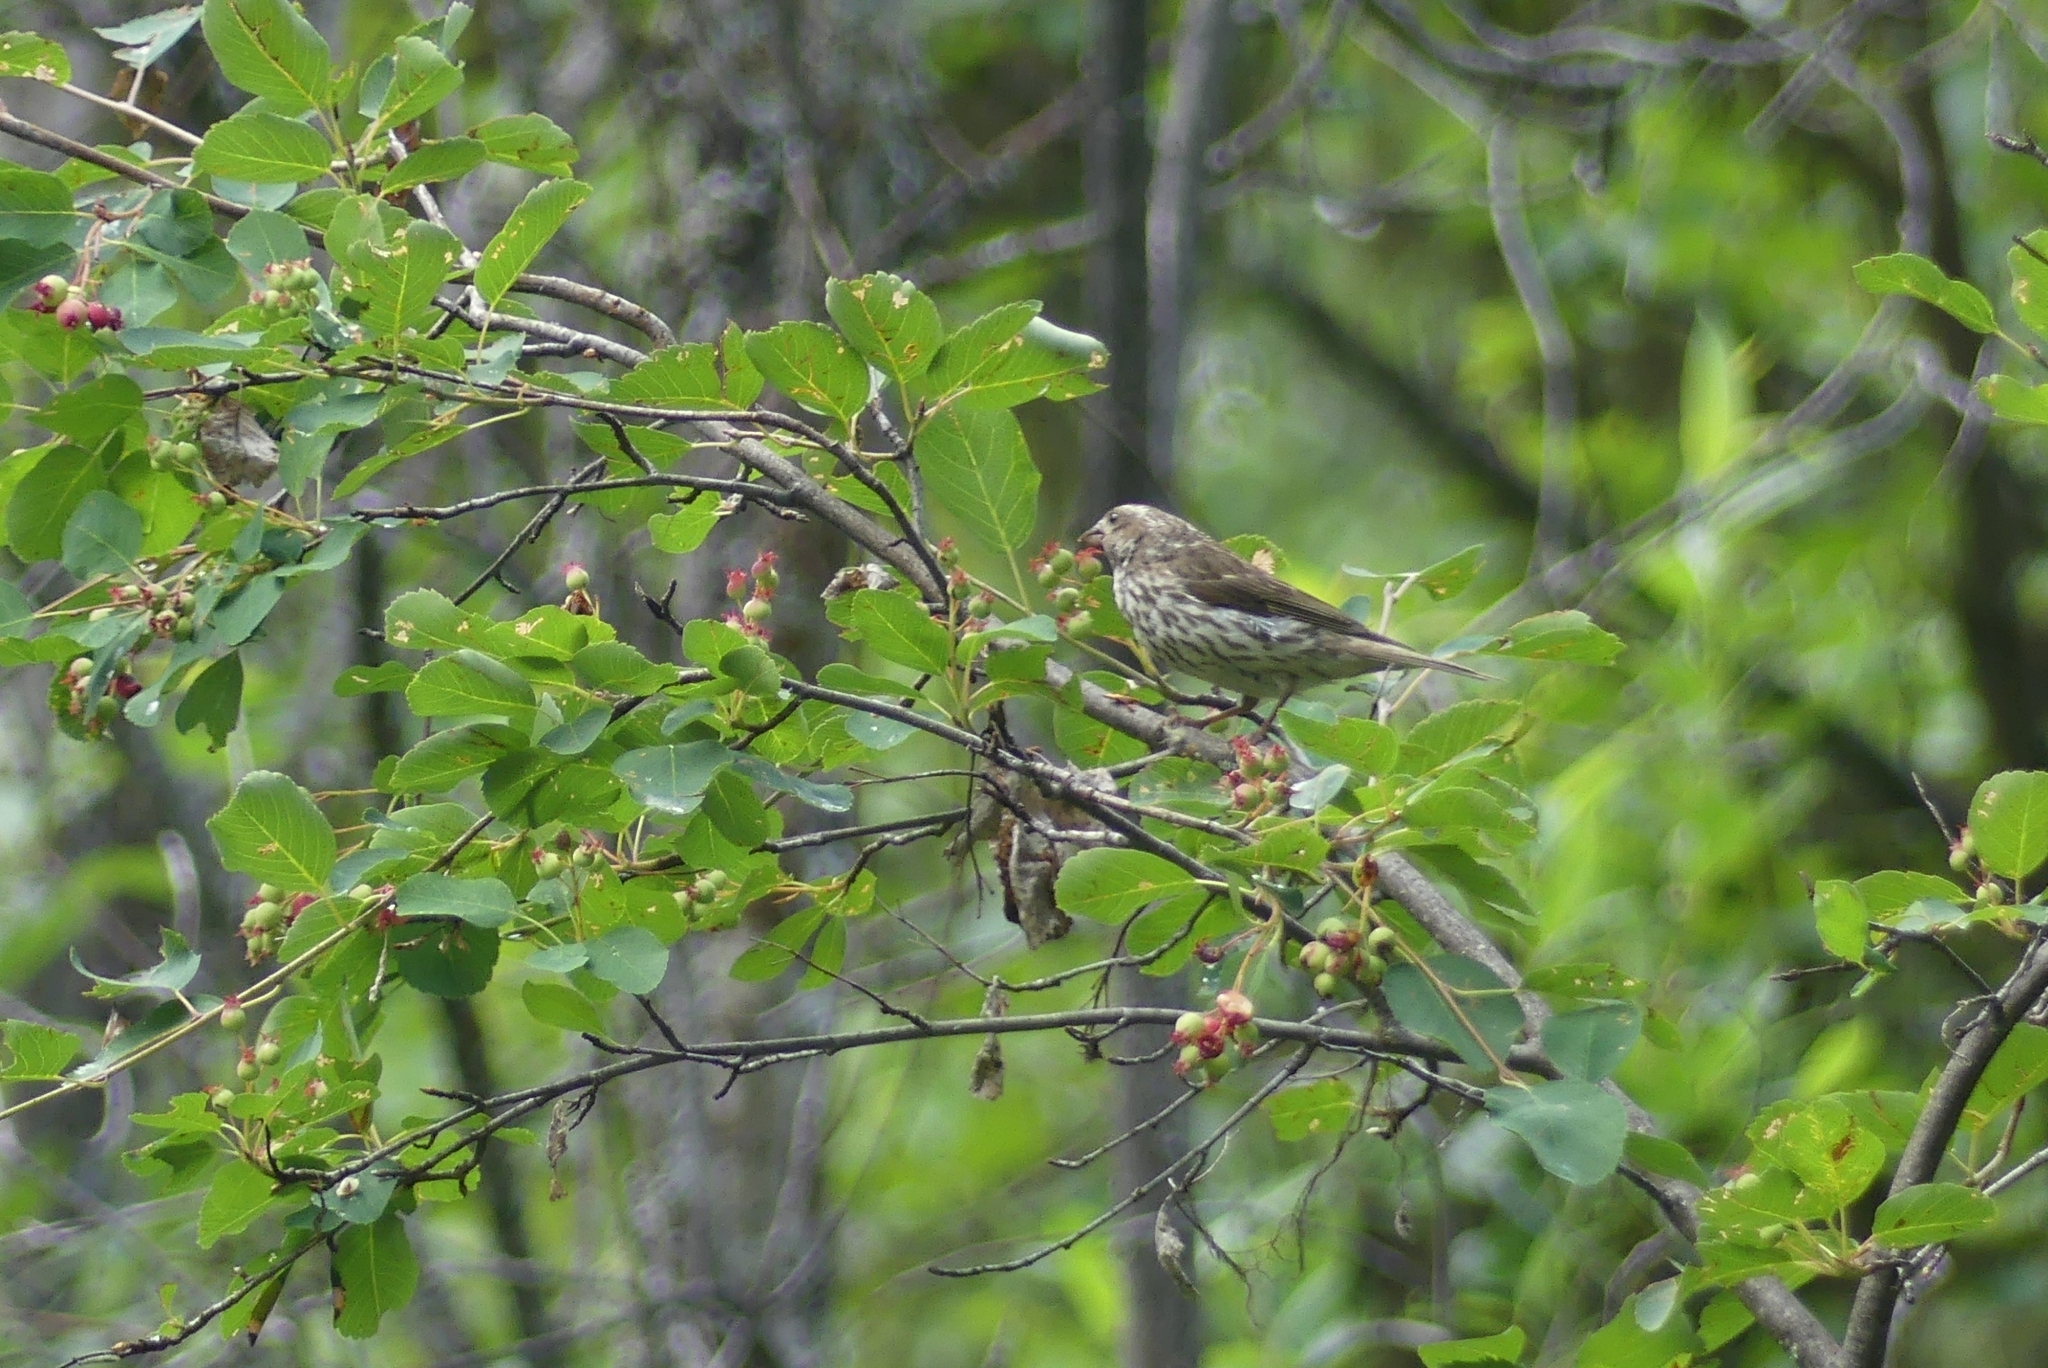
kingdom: Animalia
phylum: Chordata
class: Aves
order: Passeriformes
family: Fringillidae
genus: Haemorhous
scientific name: Haemorhous purpureus
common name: Purple finch
